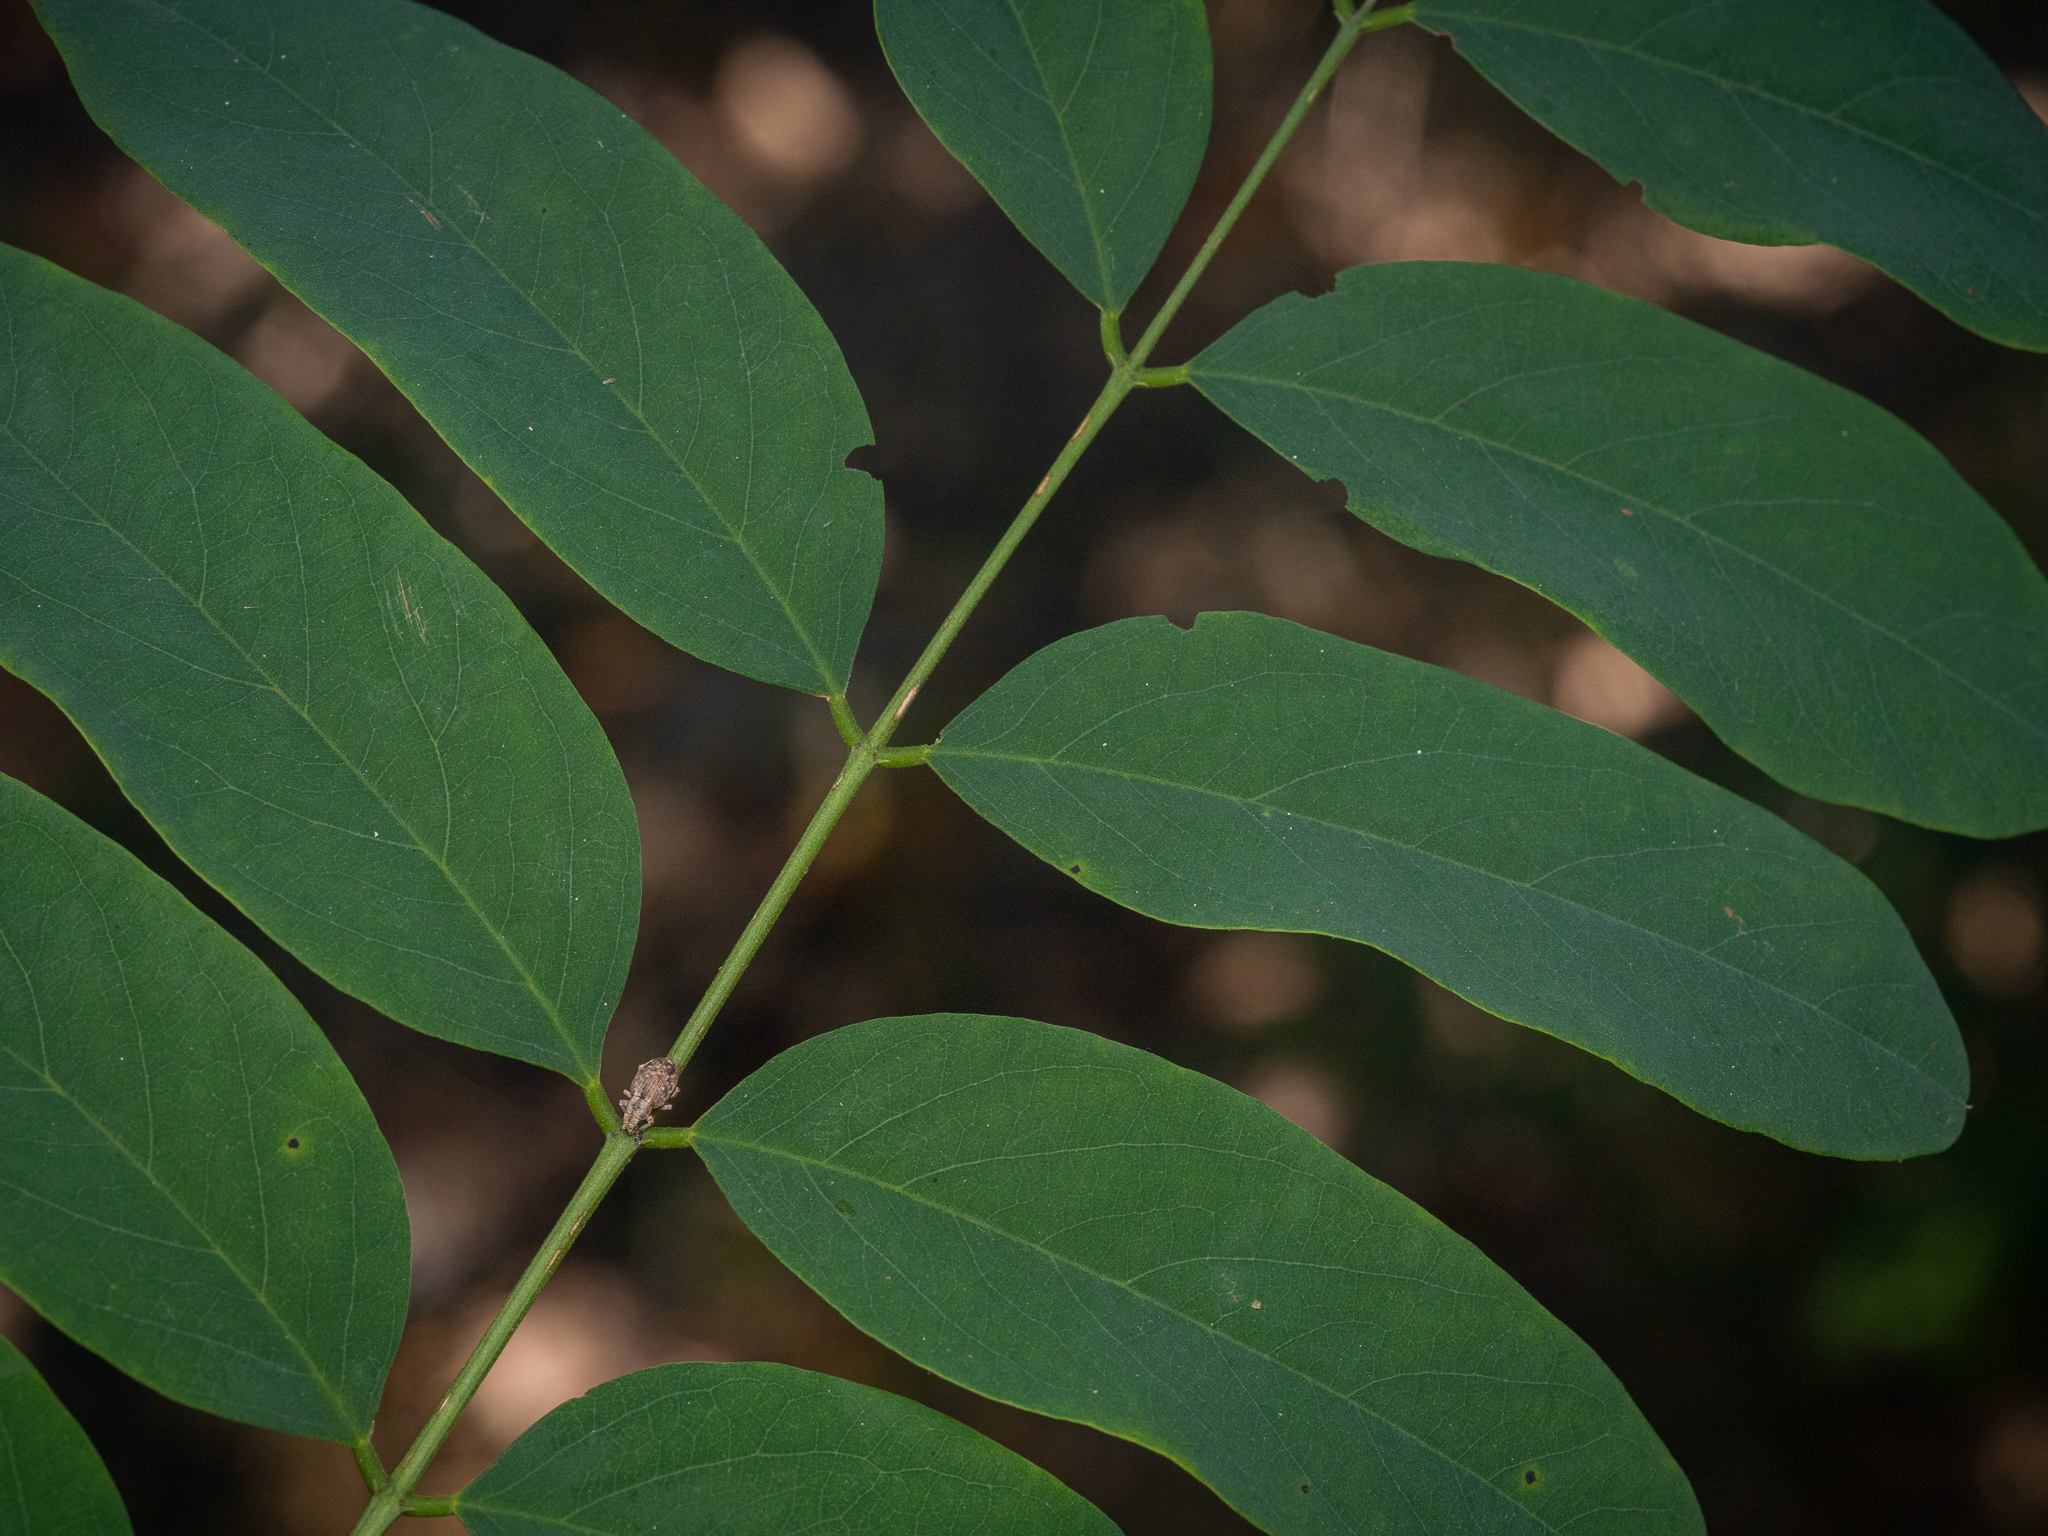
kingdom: Plantae
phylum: Tracheophyta
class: Magnoliopsida
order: Fabales
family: Fabaceae
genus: Robinia
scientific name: Robinia pseudoacacia
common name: Black locust
